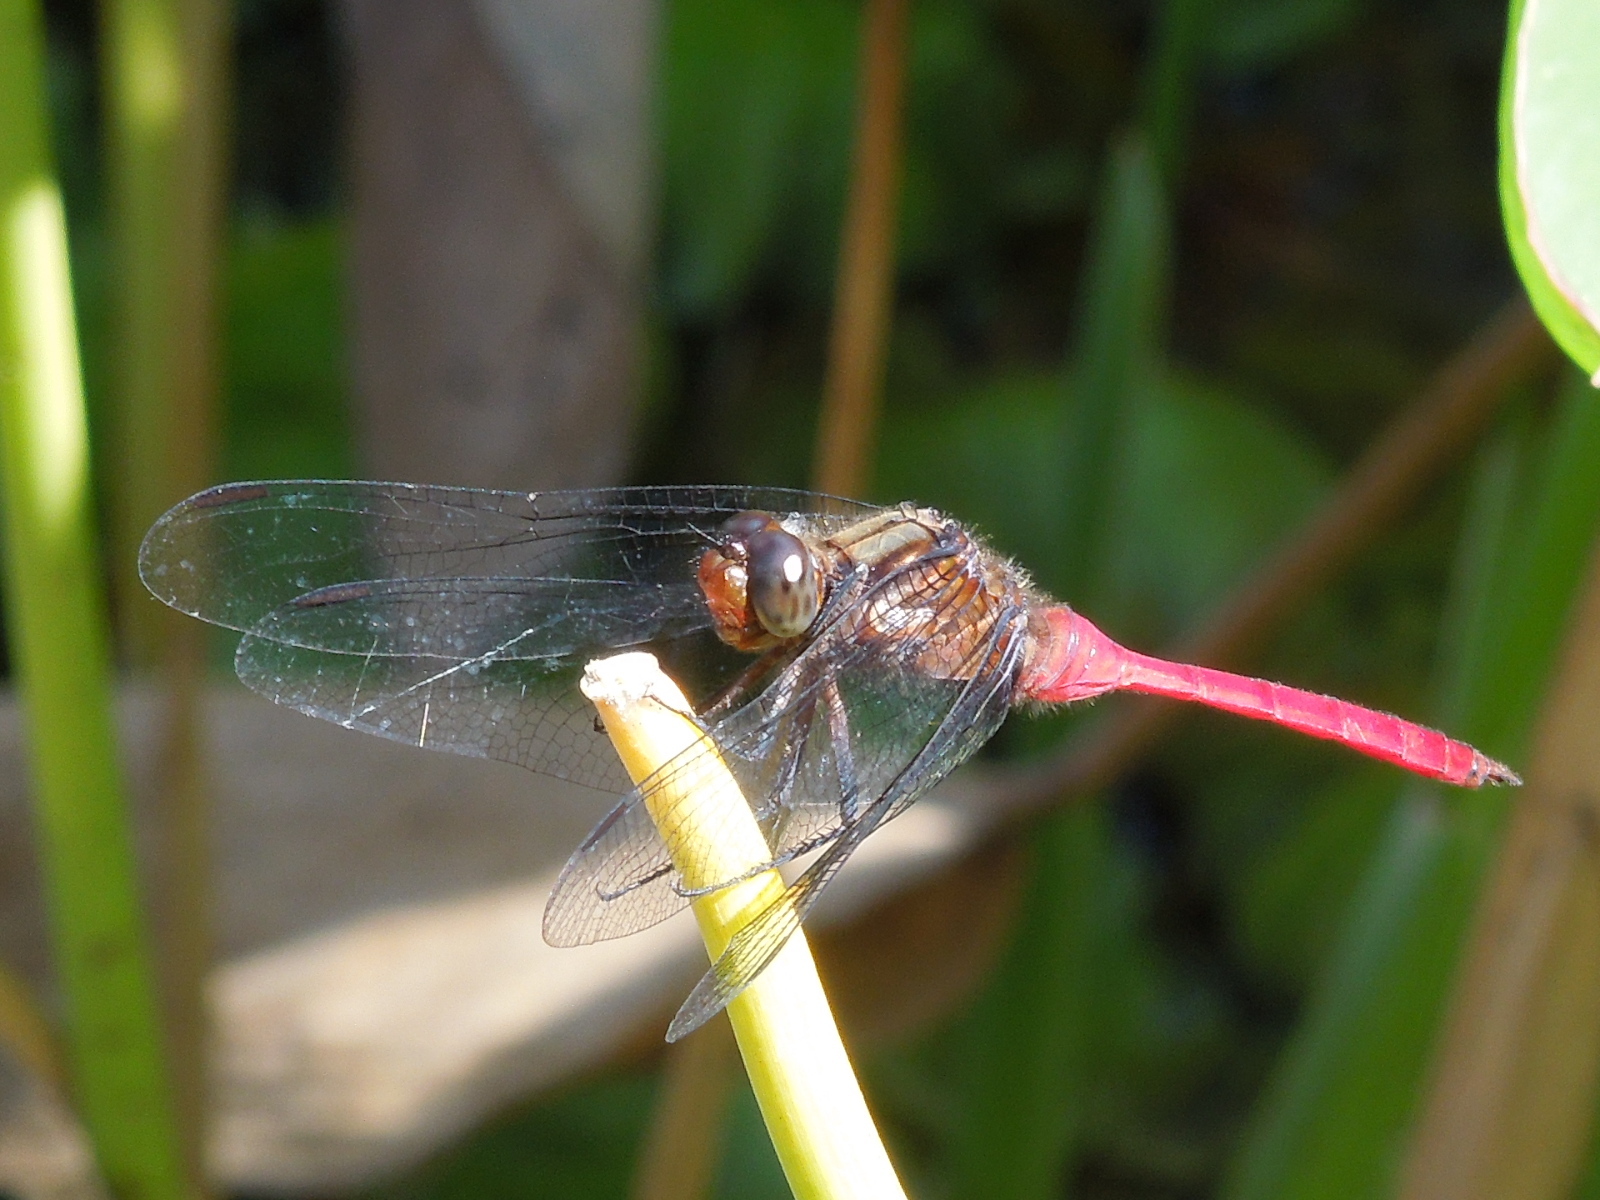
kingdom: Animalia
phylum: Arthropoda
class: Insecta
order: Odonata
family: Libellulidae
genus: Orthetrum
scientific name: Orthetrum villosovittatum
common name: Firery skimmer
